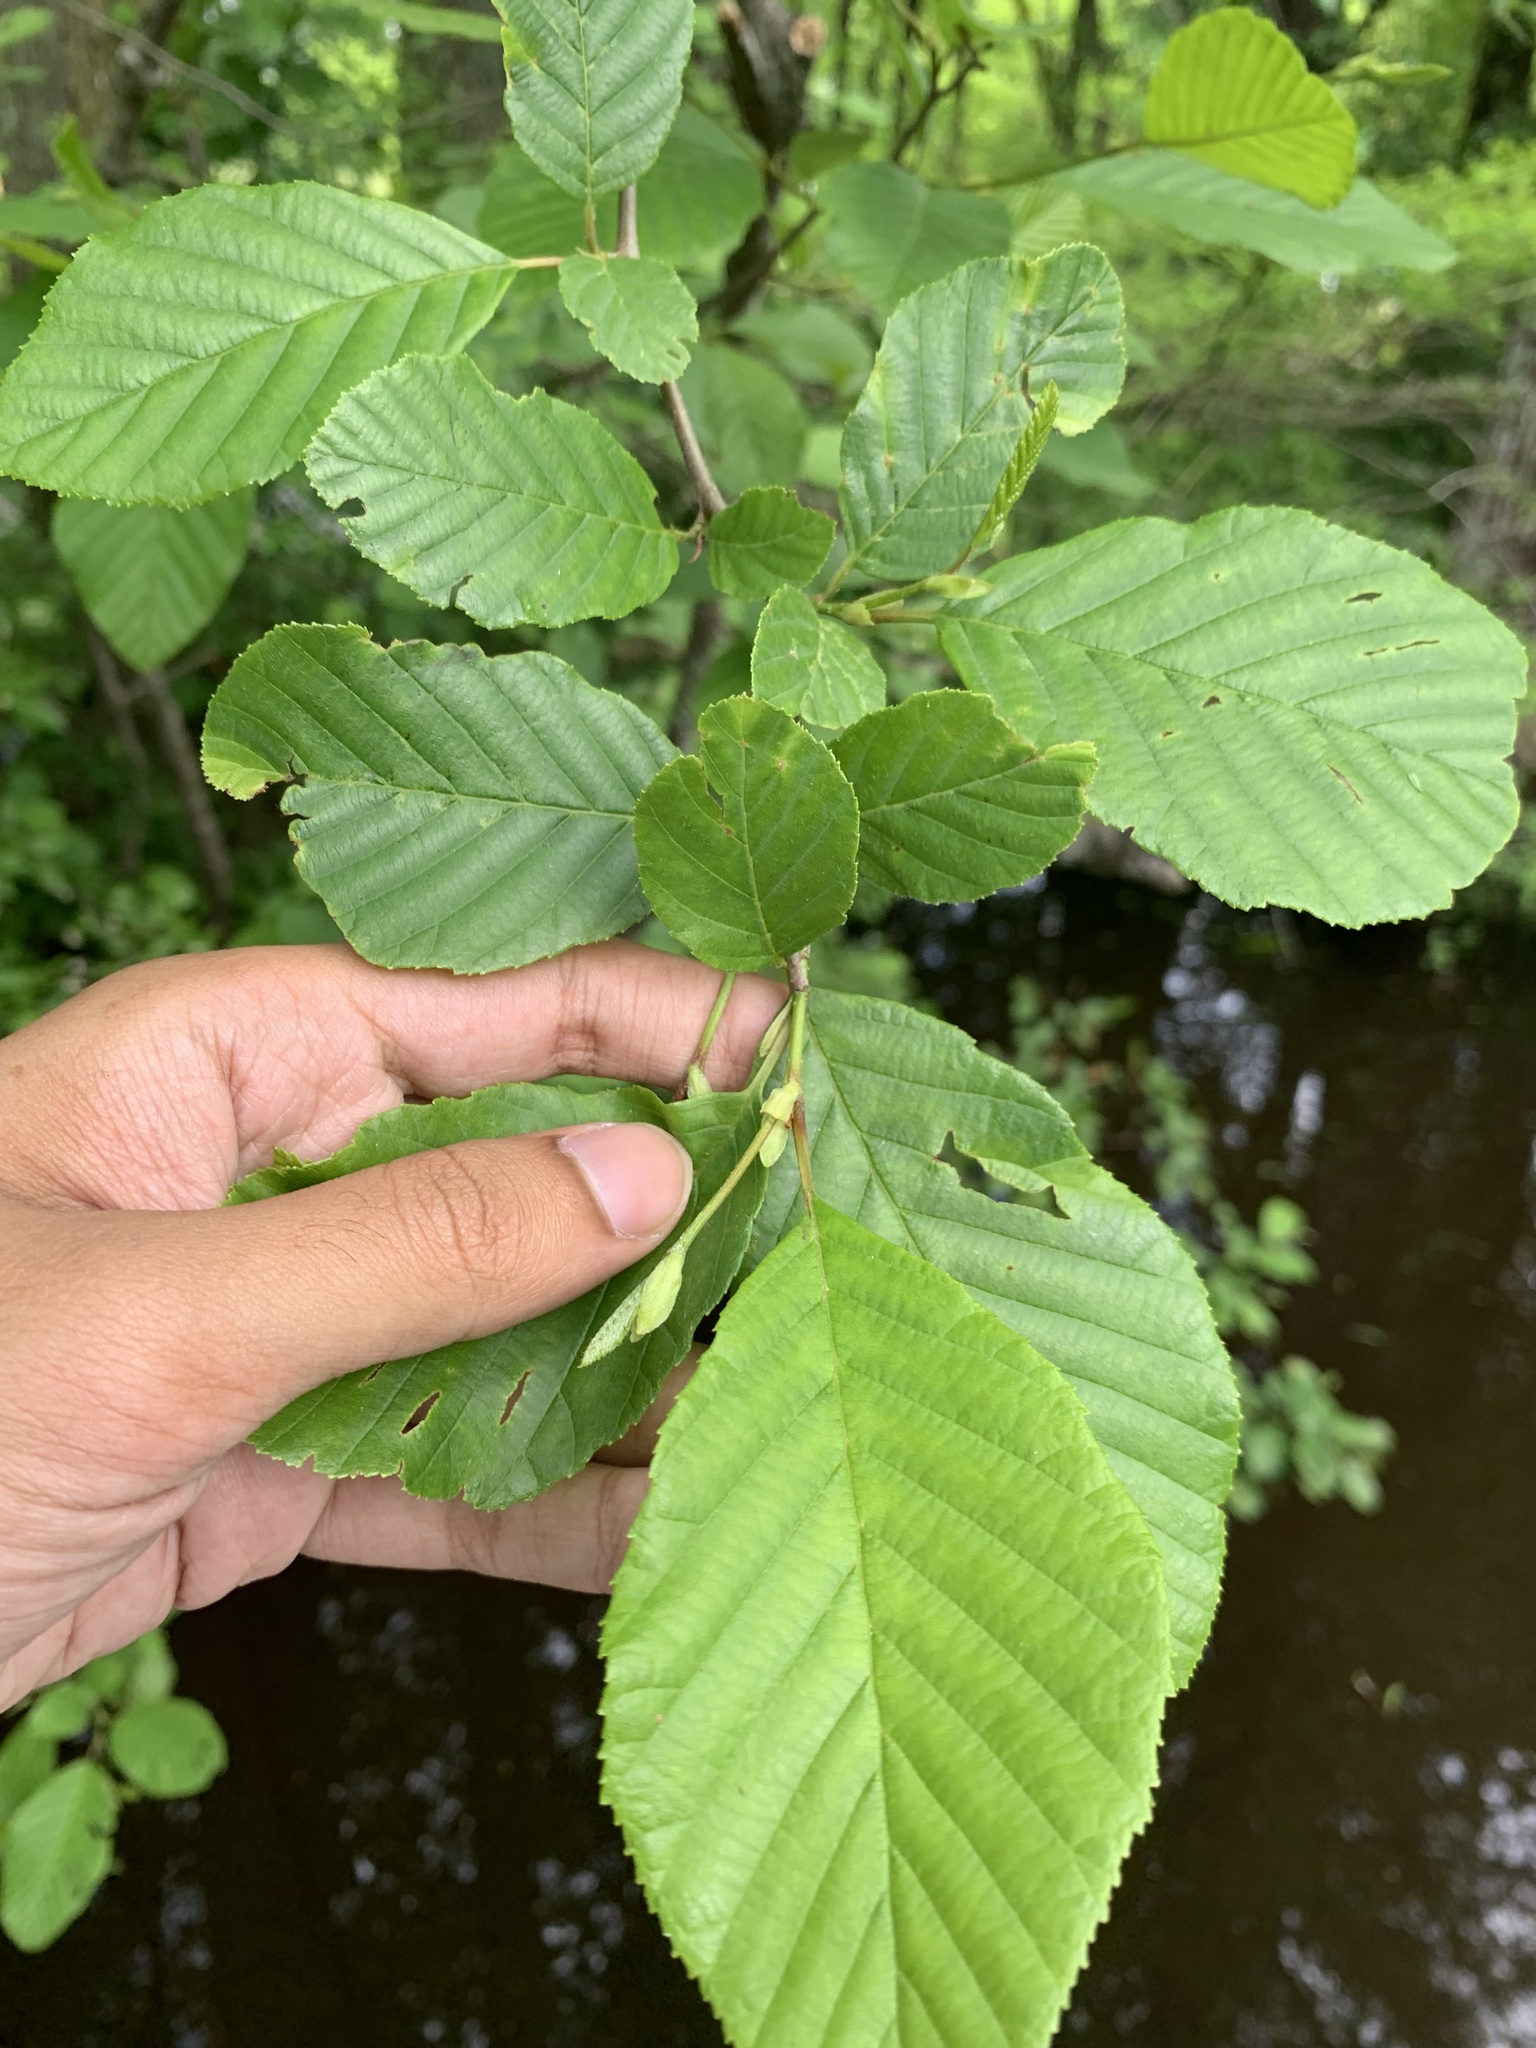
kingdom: Plantae
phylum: Tracheophyta
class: Magnoliopsida
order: Fagales
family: Betulaceae
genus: Alnus
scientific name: Alnus serrulata
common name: Hazel alder
